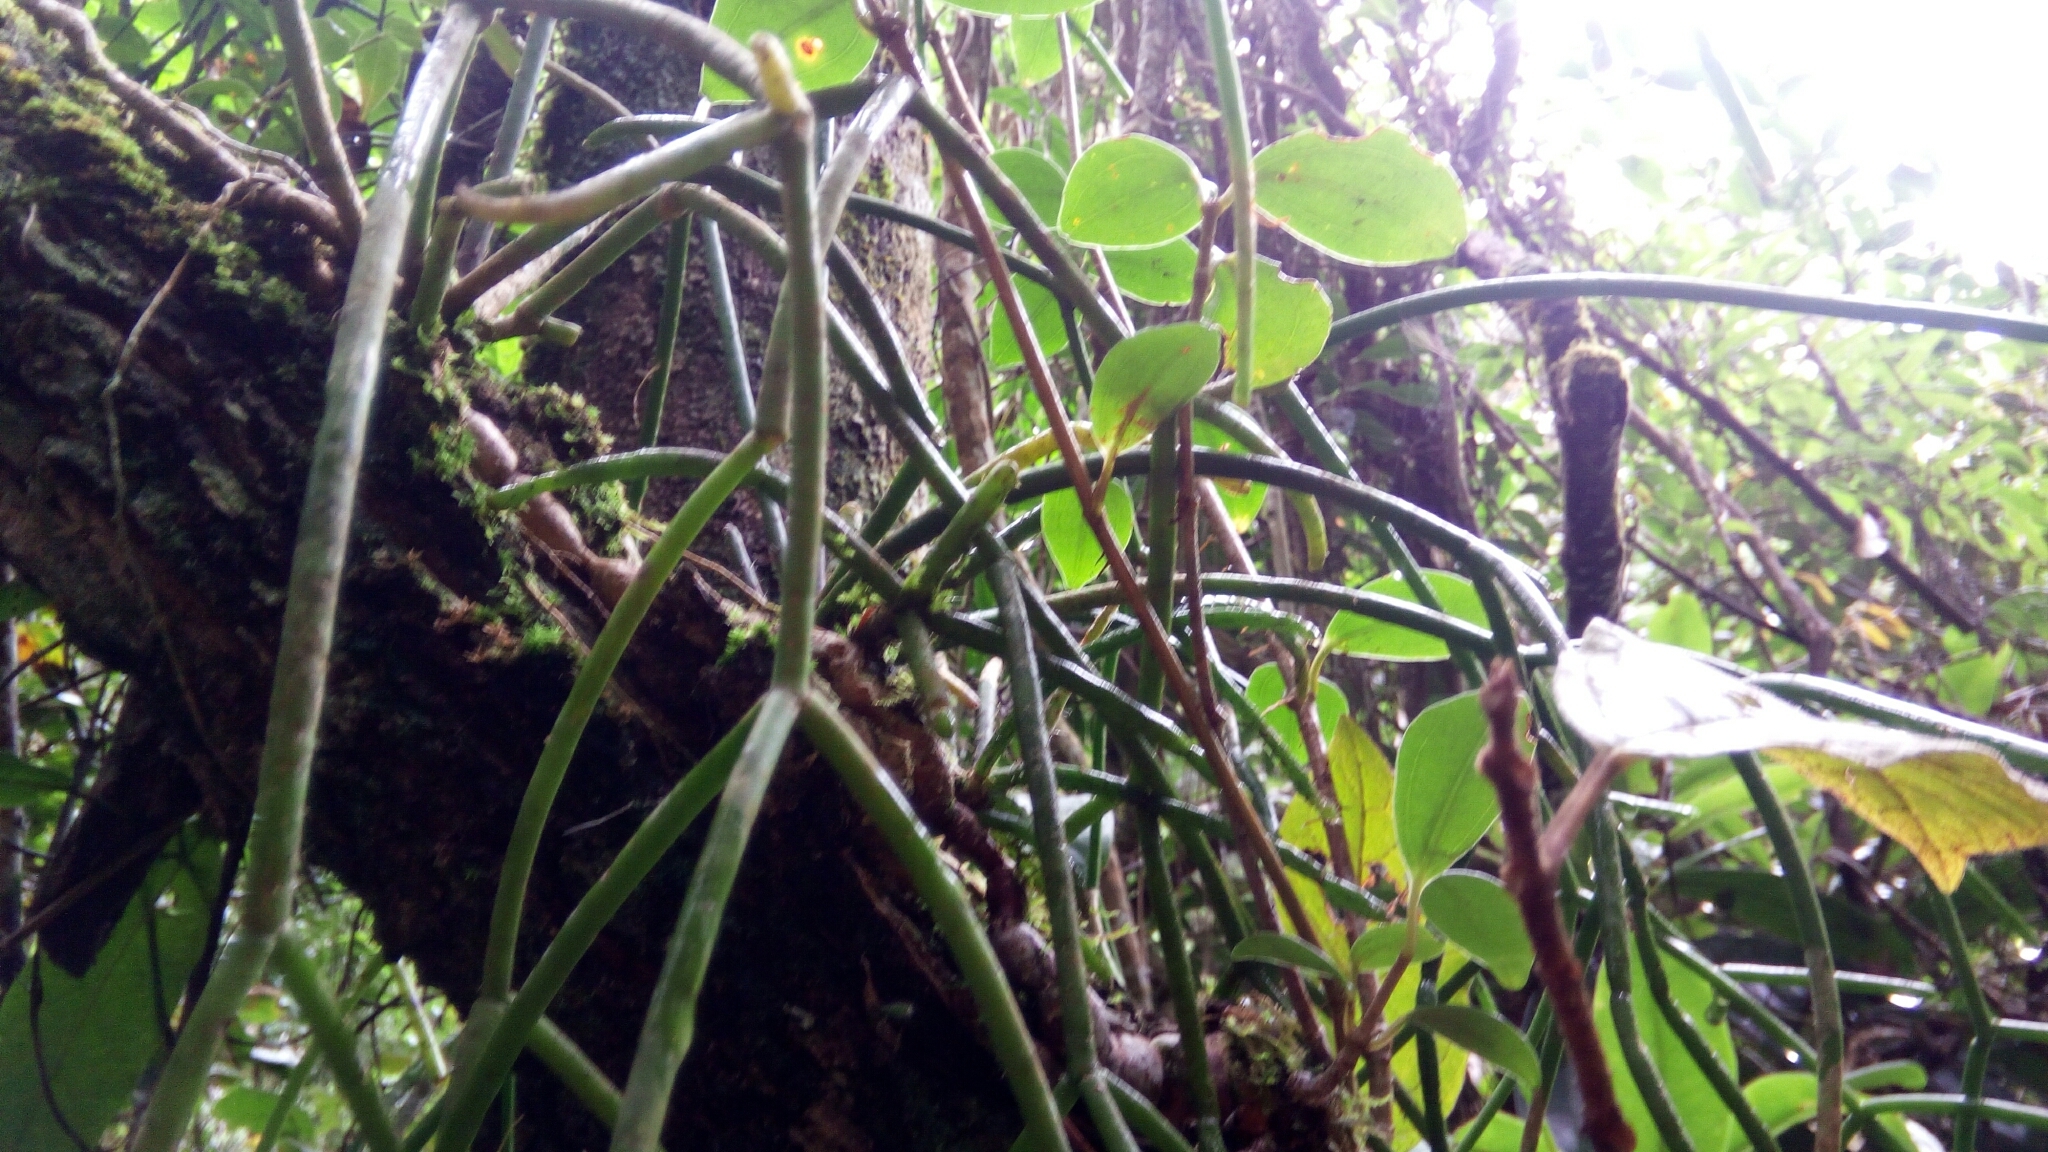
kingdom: Plantae
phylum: Tracheophyta
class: Magnoliopsida
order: Caryophyllales
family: Cactaceae
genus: Rhipsalis
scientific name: Rhipsalis baccifera
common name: Mistletoe cactus
